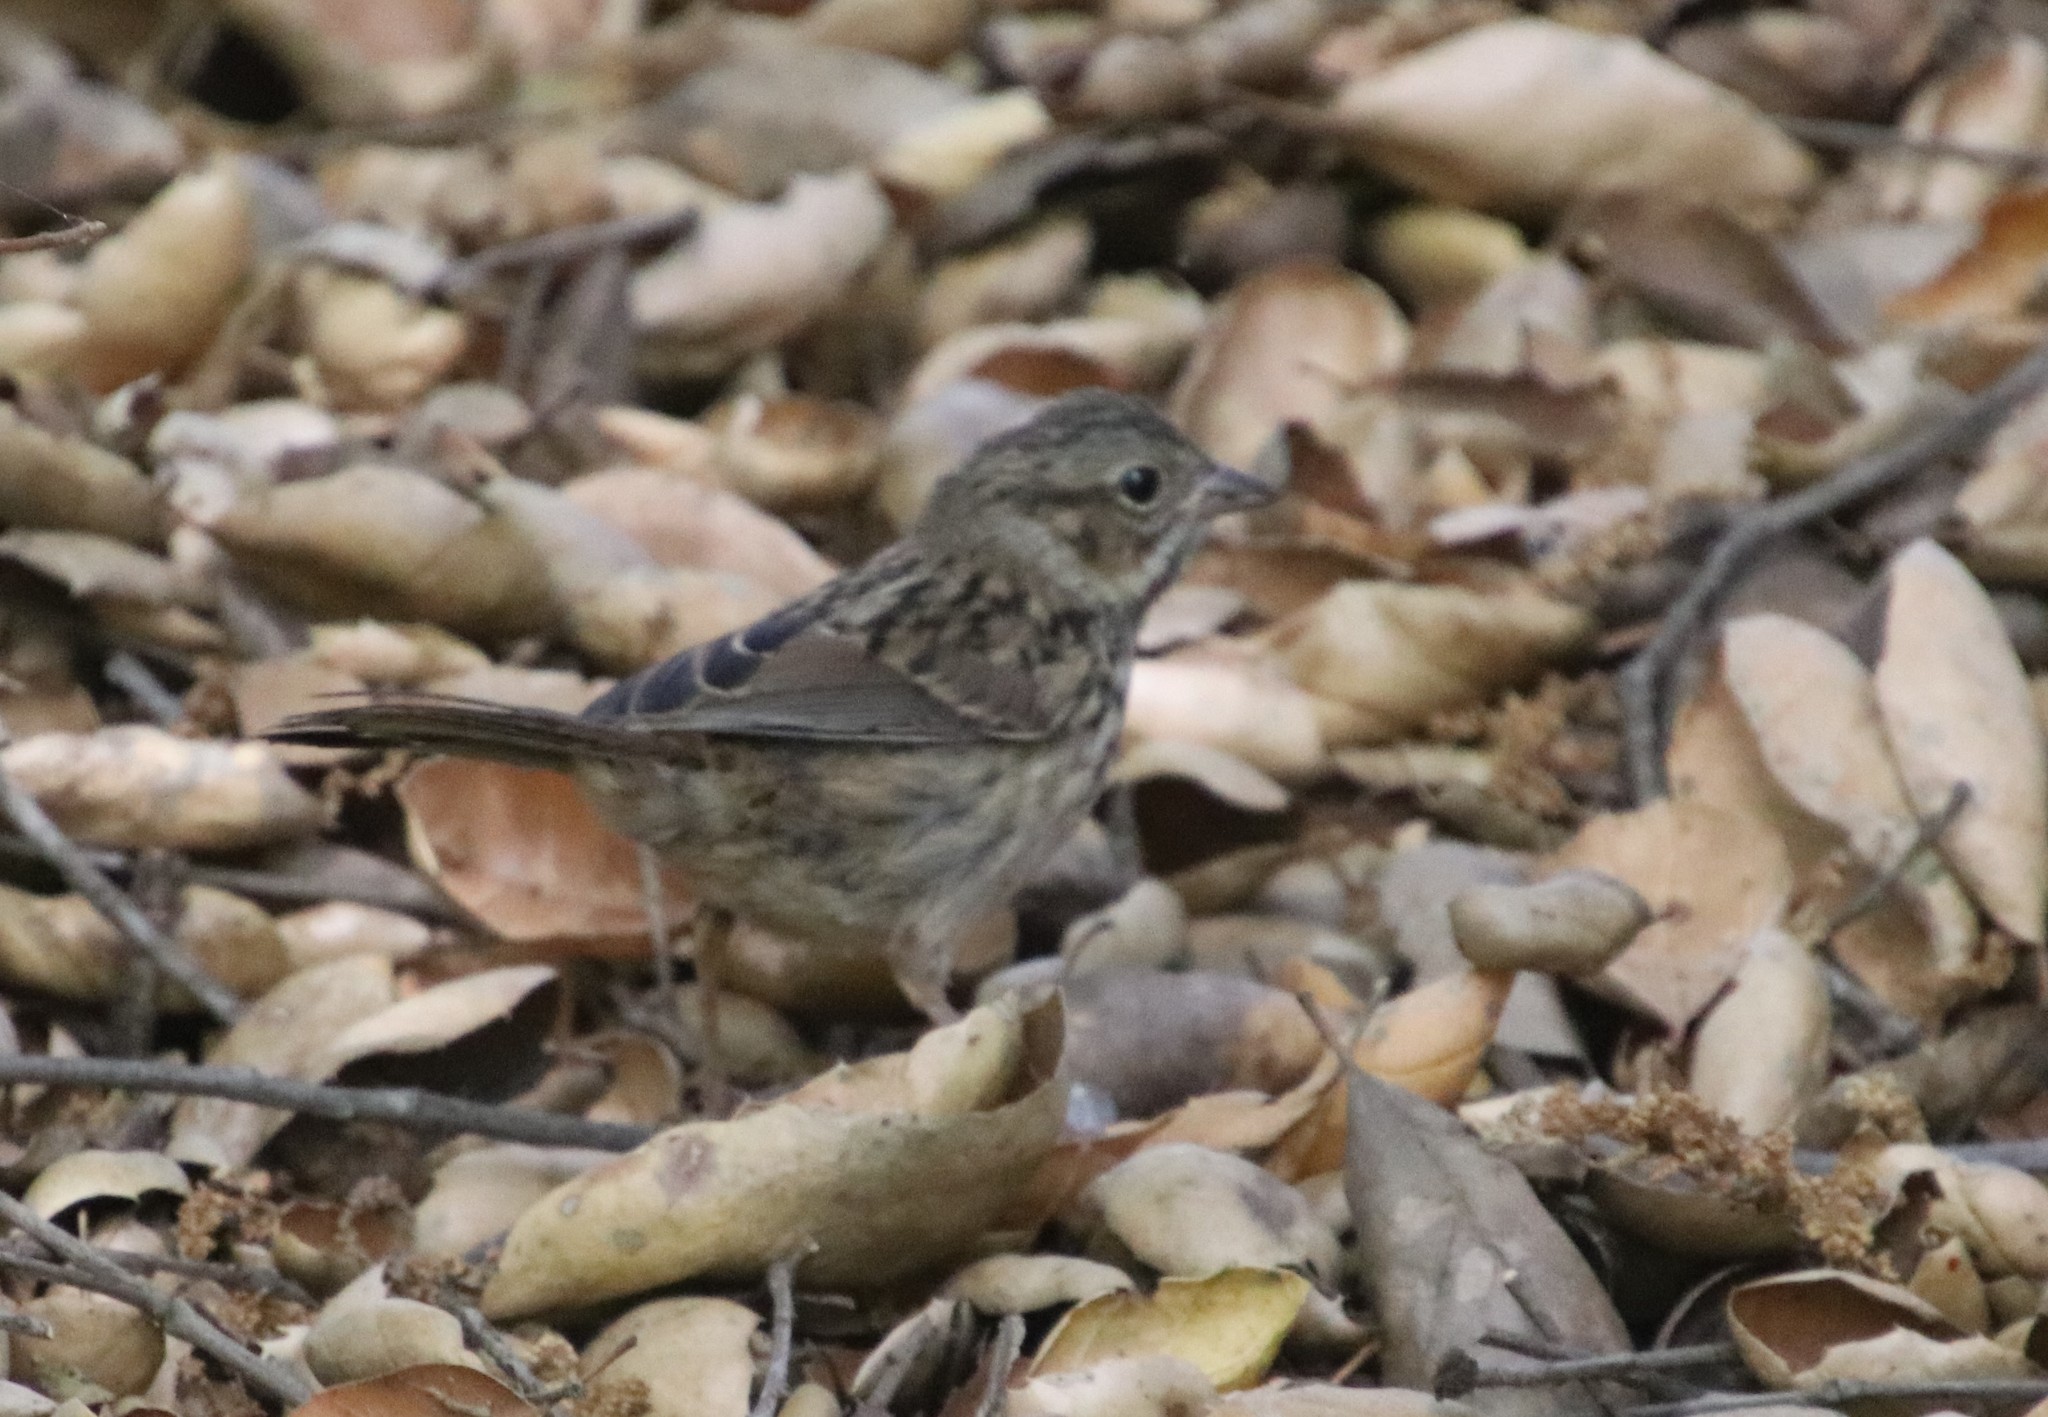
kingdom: Animalia
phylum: Chordata
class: Aves
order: Passeriformes
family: Passerellidae
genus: Melospiza
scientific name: Melospiza melodia
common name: Song sparrow
